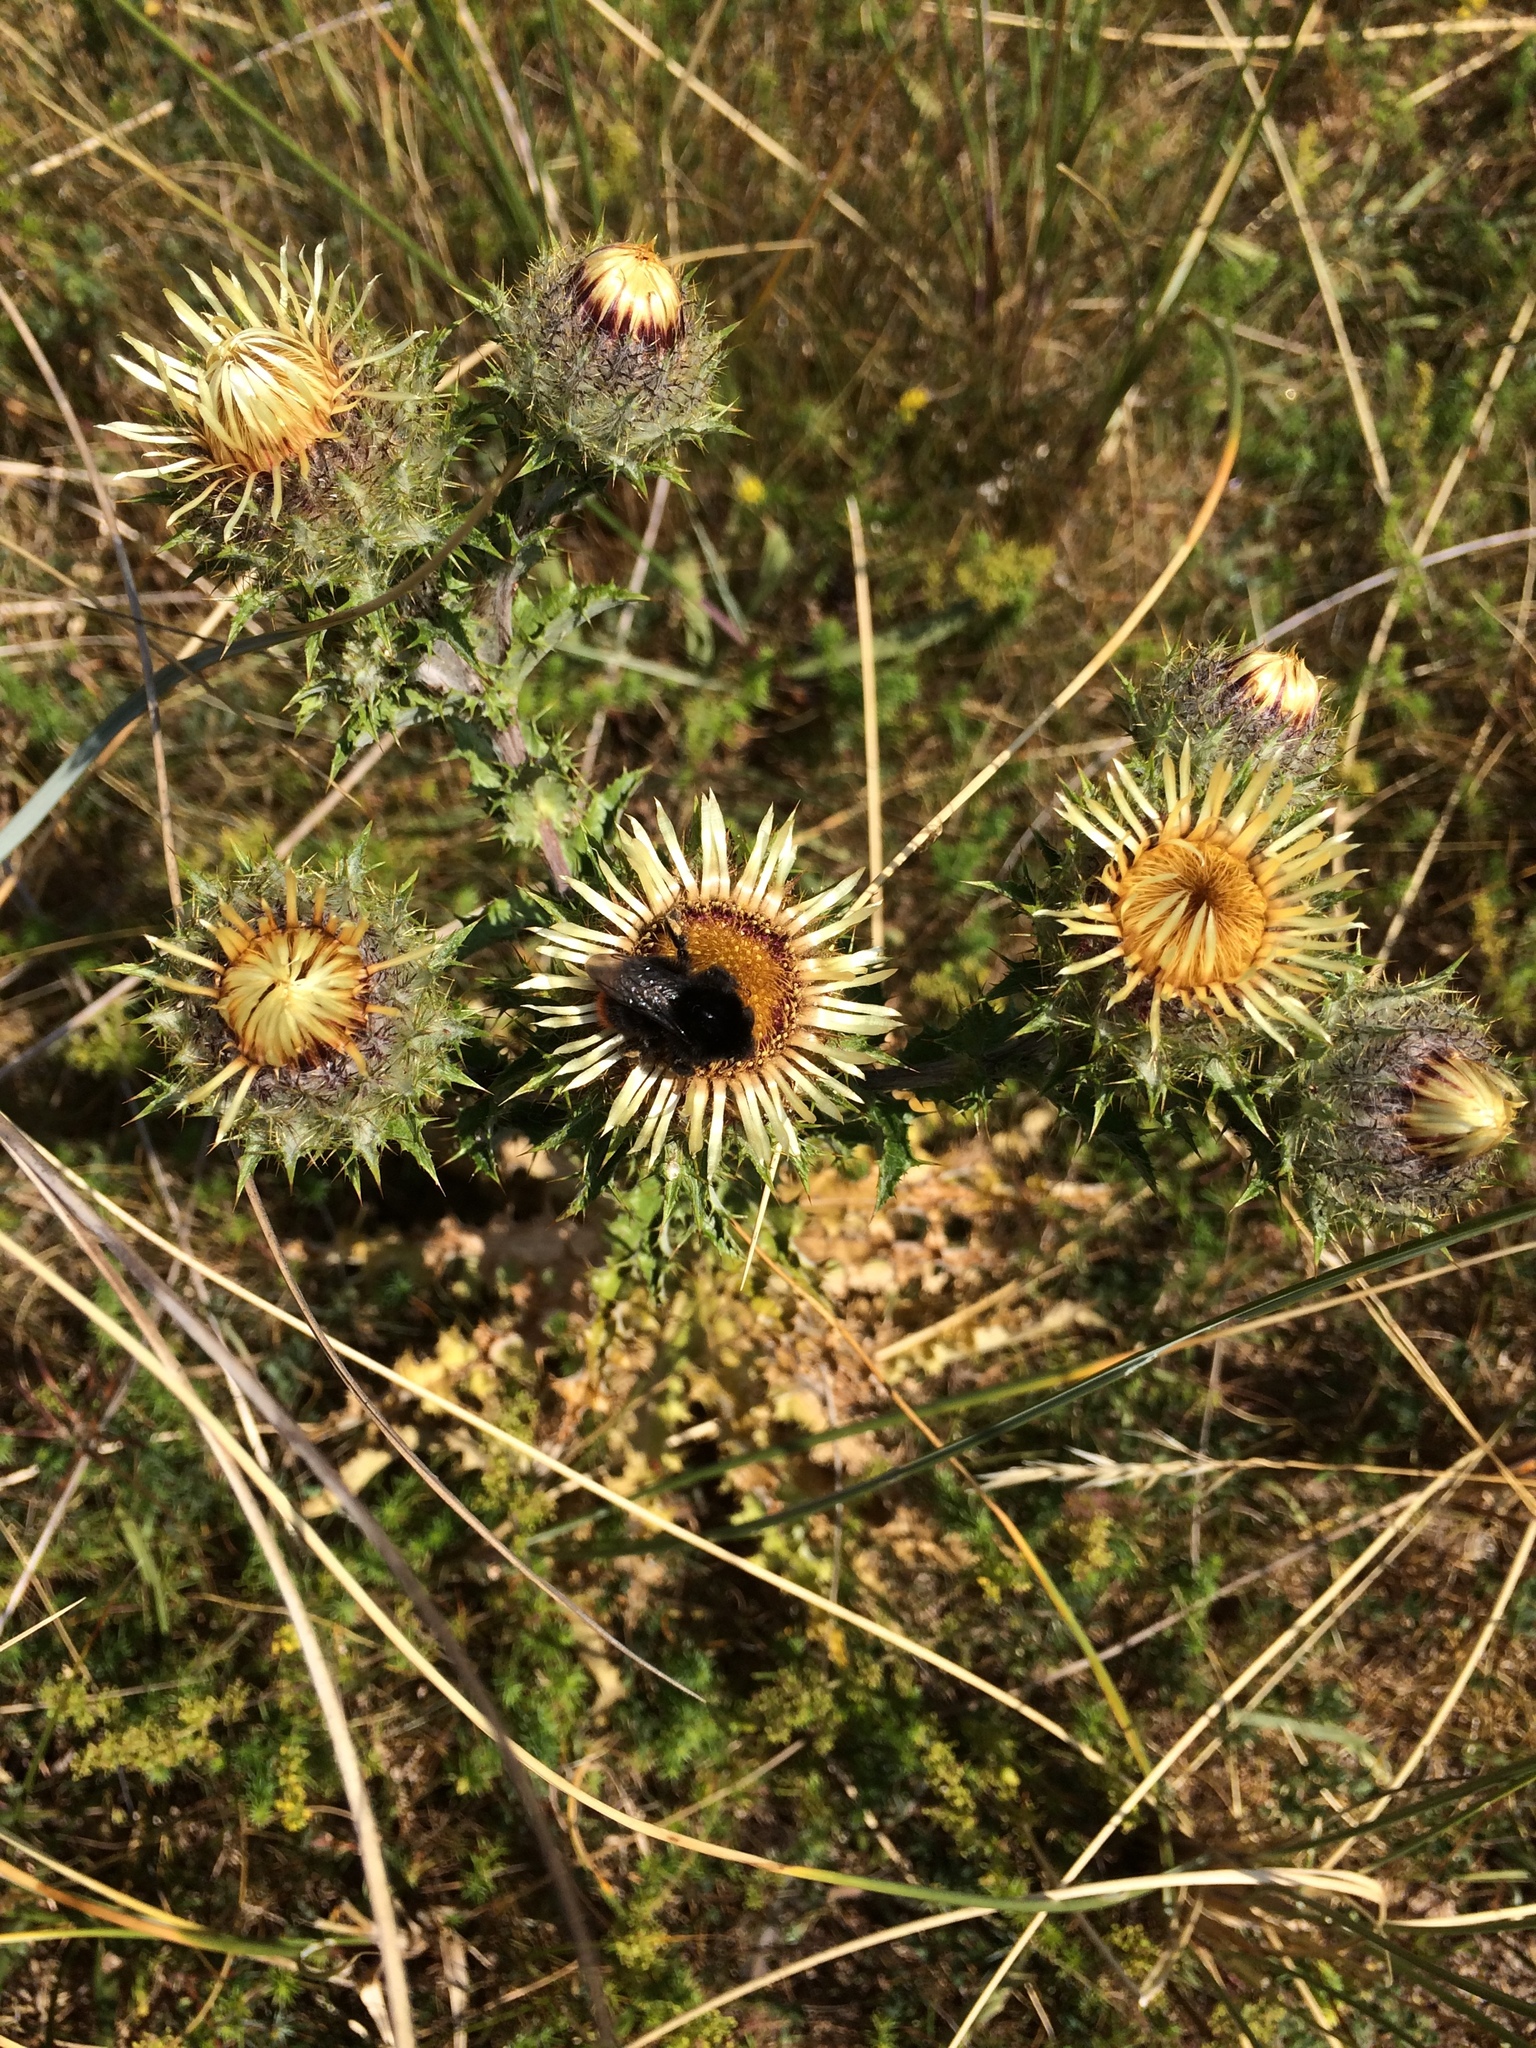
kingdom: Plantae
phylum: Tracheophyta
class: Magnoliopsida
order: Asterales
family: Asteraceae
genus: Carlina
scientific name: Carlina vulgaris
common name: Carline thistle
